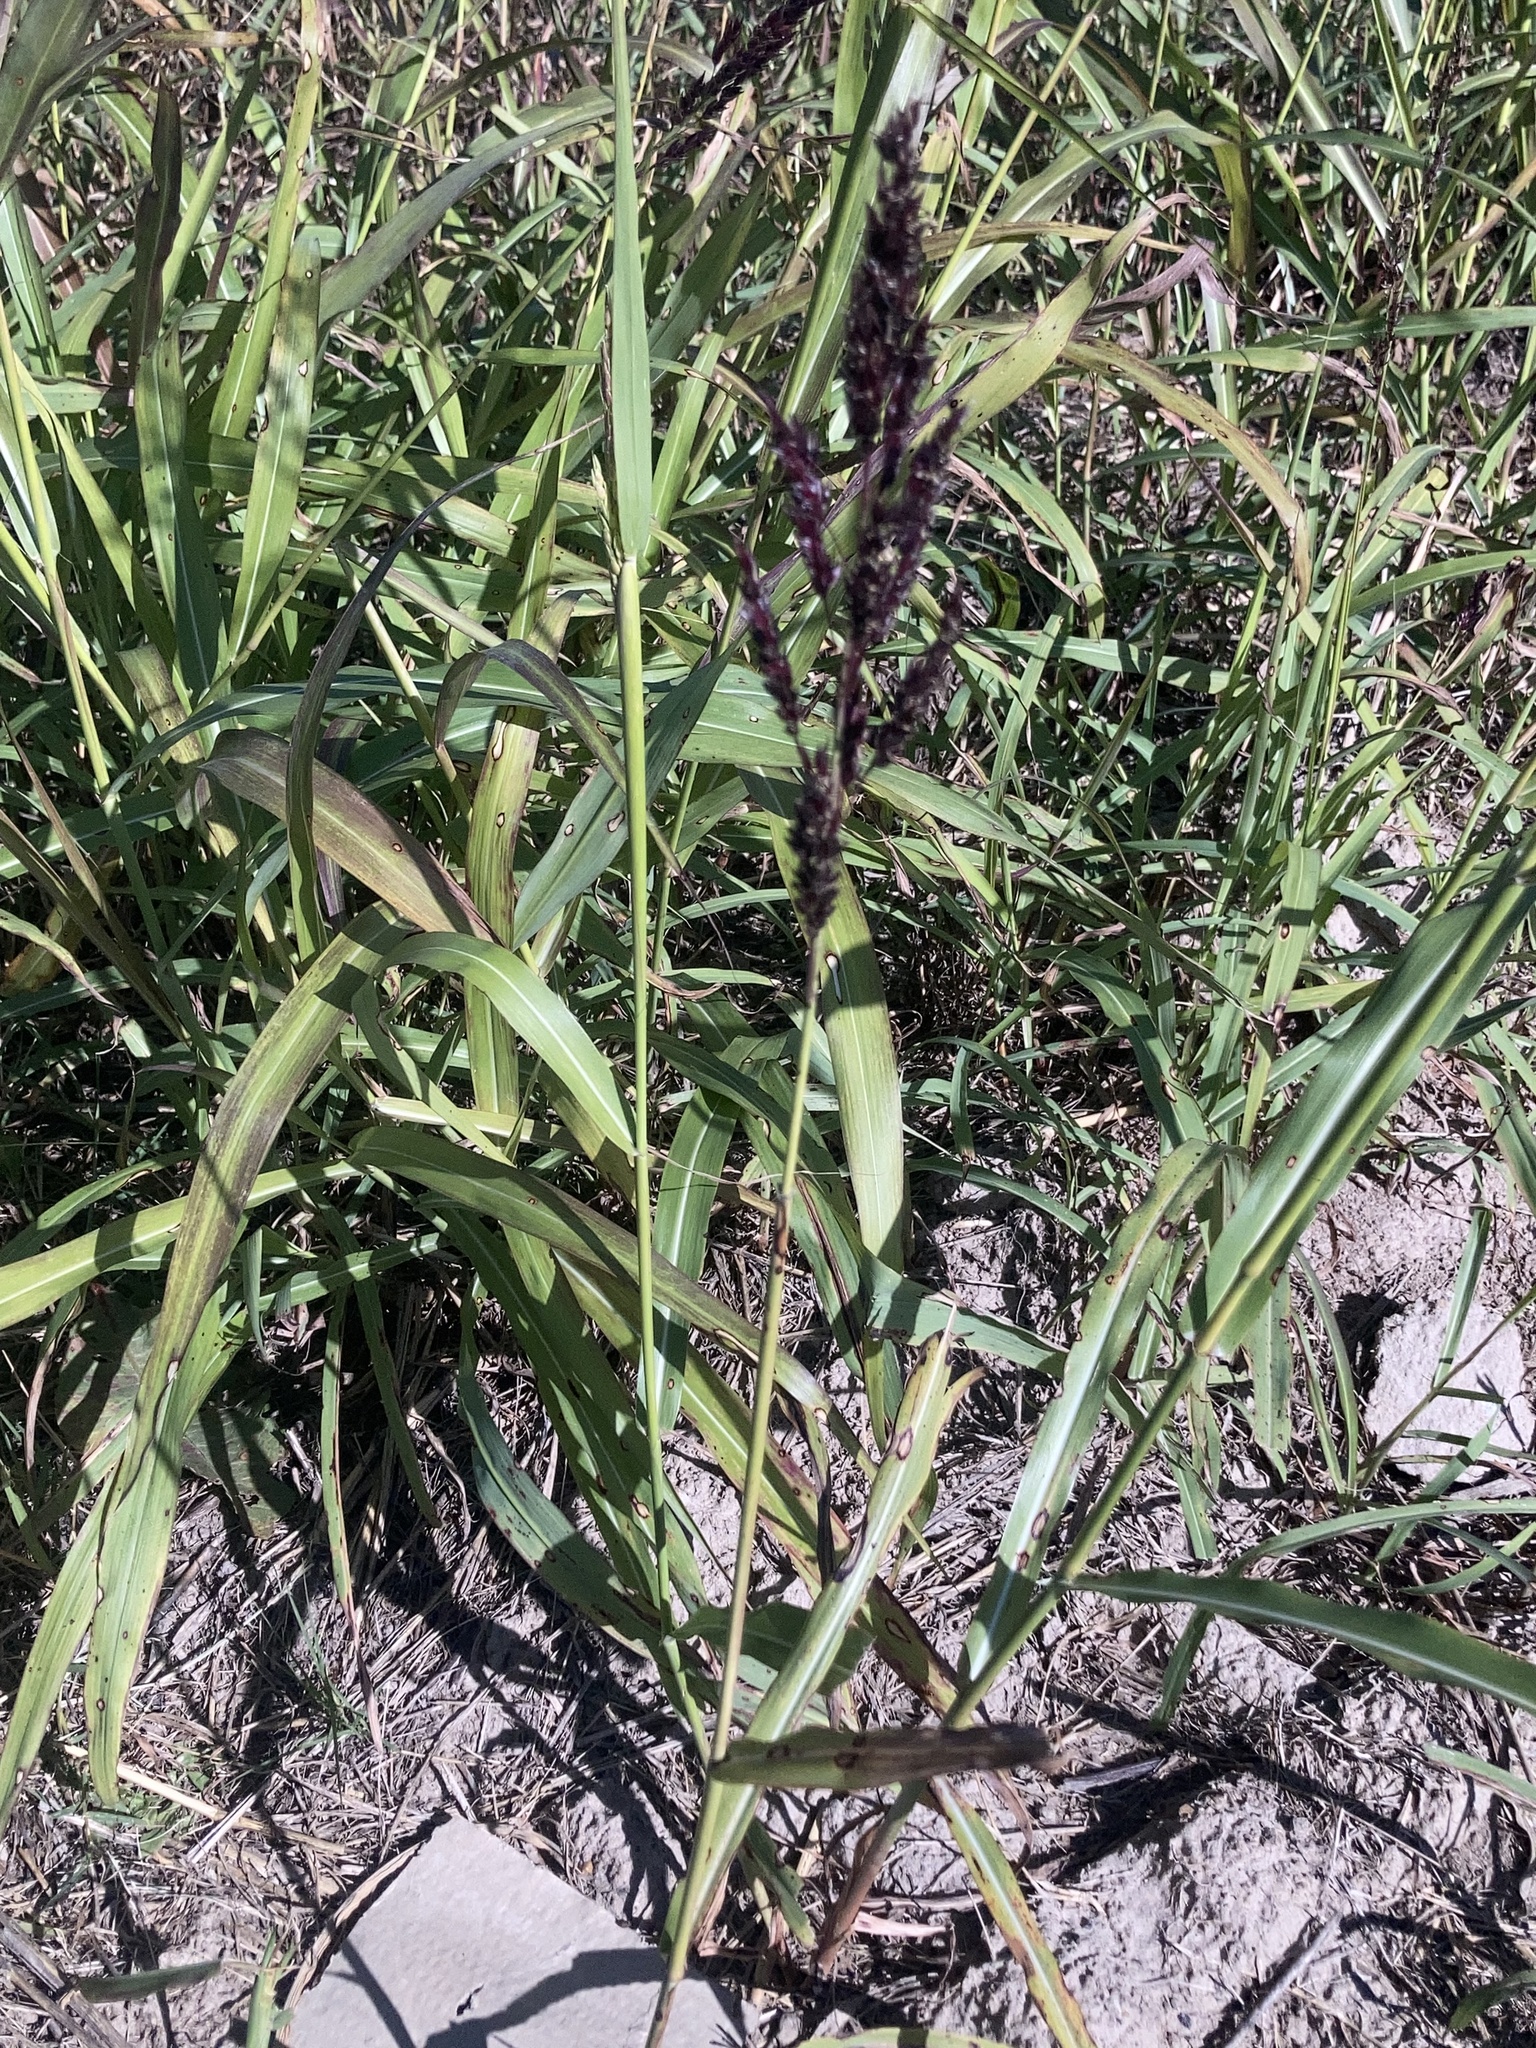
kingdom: Plantae
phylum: Tracheophyta
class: Liliopsida
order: Poales
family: Poaceae
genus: Sorghum
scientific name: Sorghum halepense
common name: Johnson-grass
